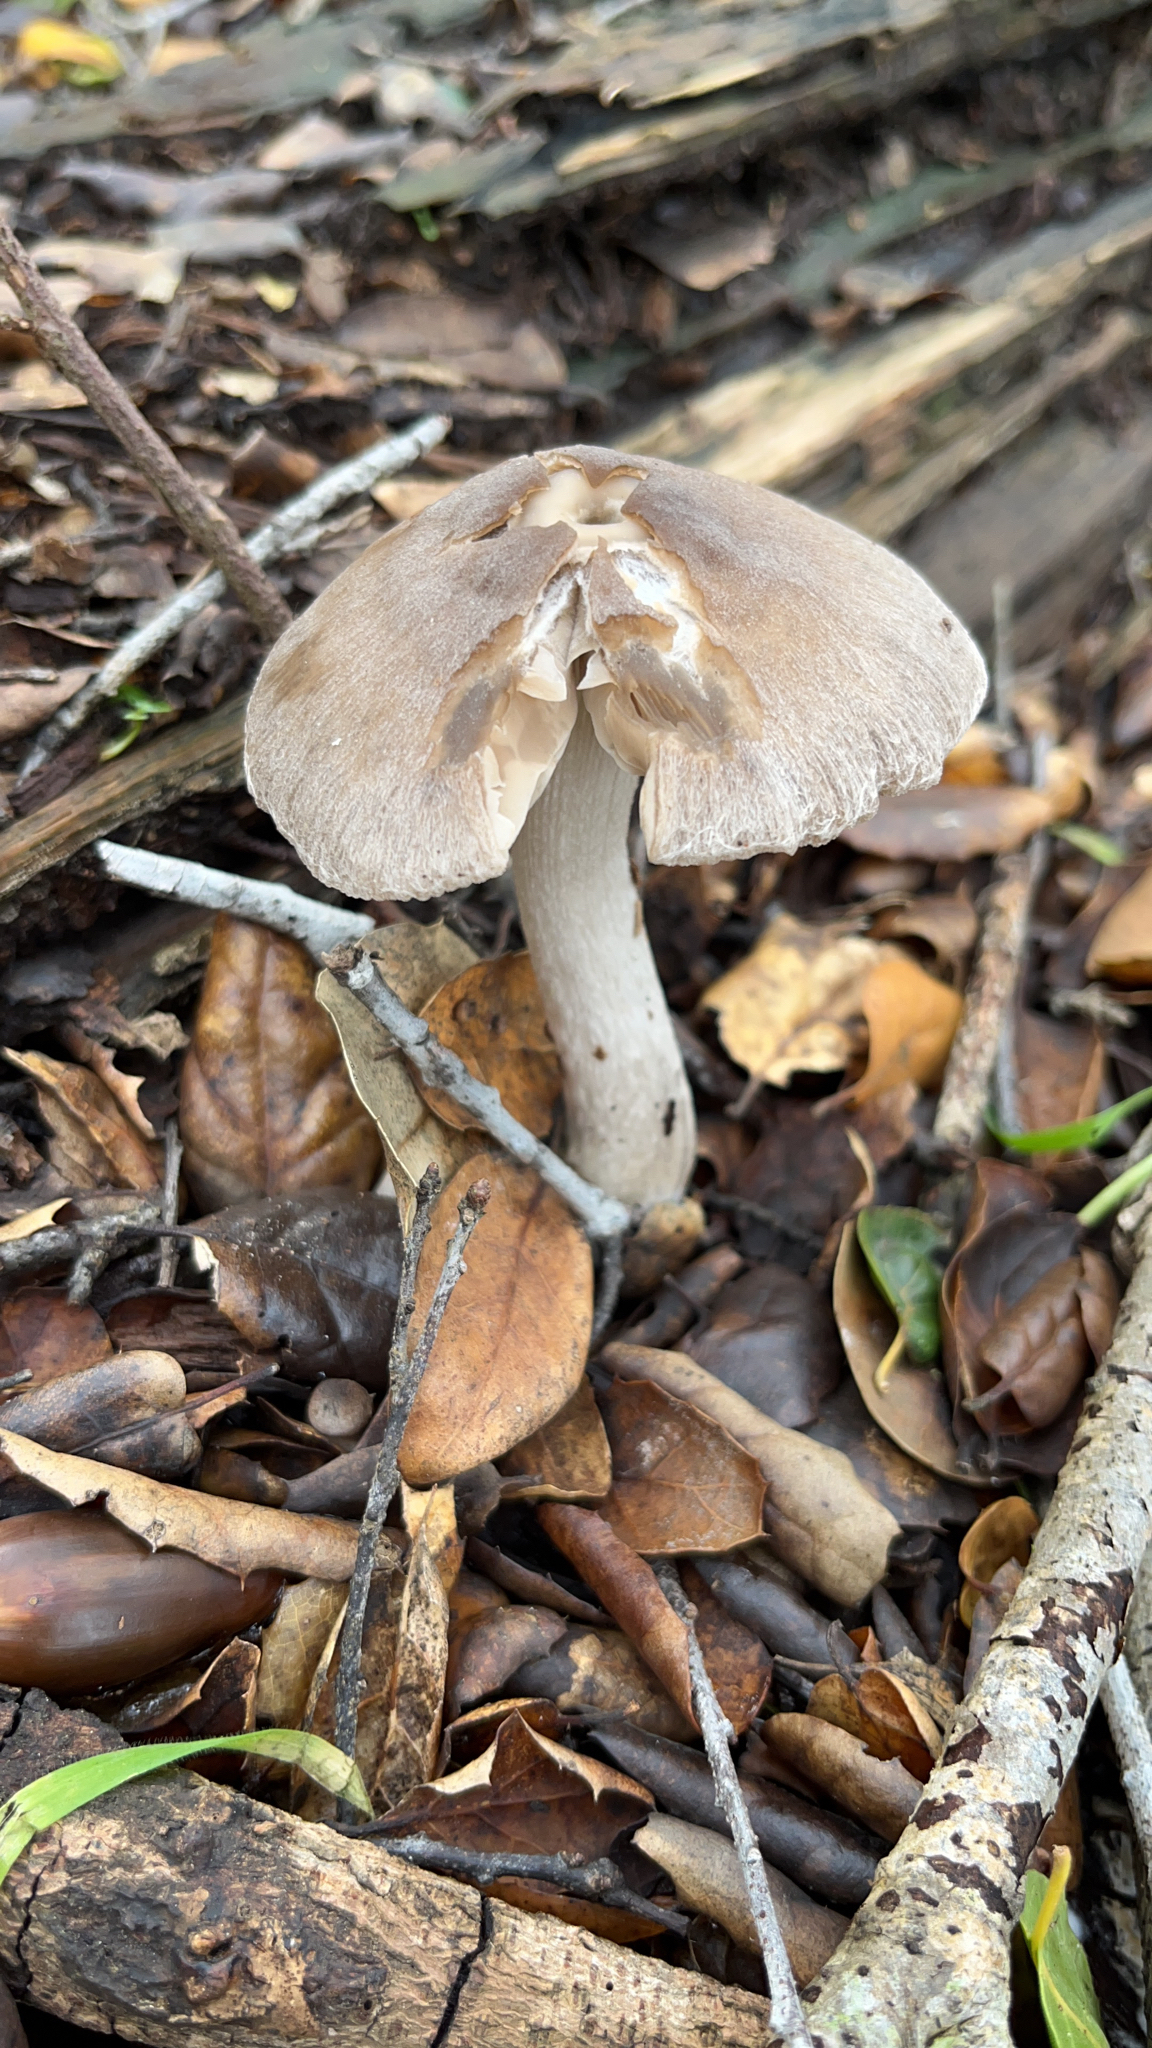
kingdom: Fungi
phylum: Basidiomycota
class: Agaricomycetes
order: Agaricales
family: Psathyrellaceae
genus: Psathyrella
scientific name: Psathyrella uliginicola
